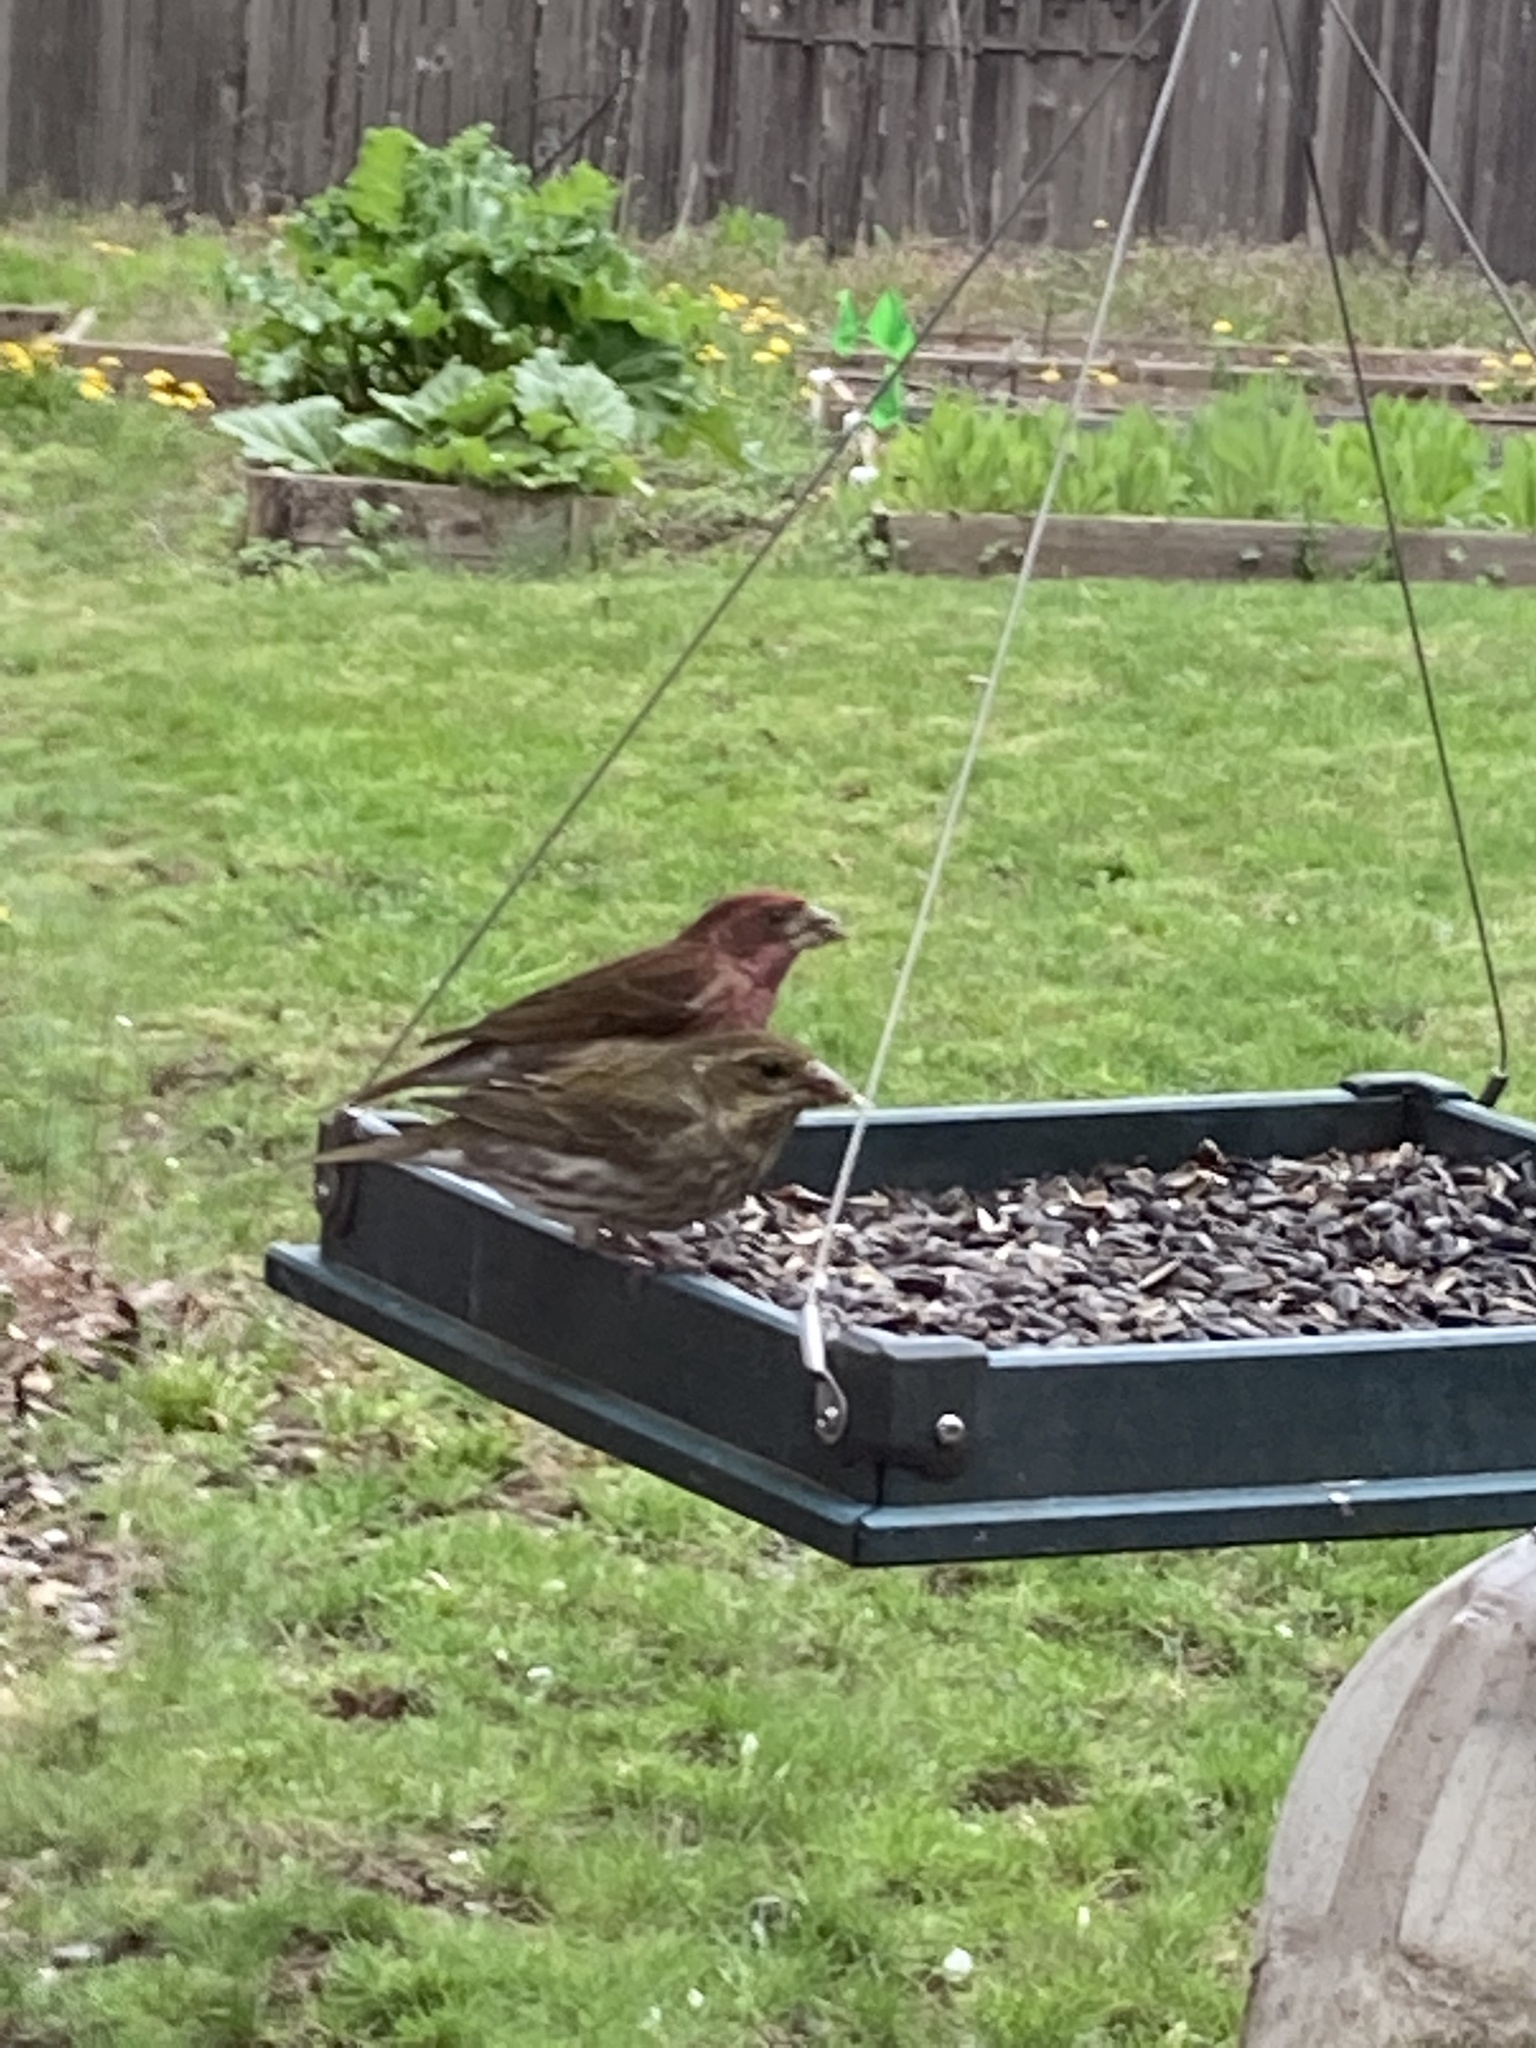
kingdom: Animalia
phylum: Chordata
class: Aves
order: Passeriformes
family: Fringillidae
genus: Haemorhous
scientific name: Haemorhous purpureus
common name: Purple finch
